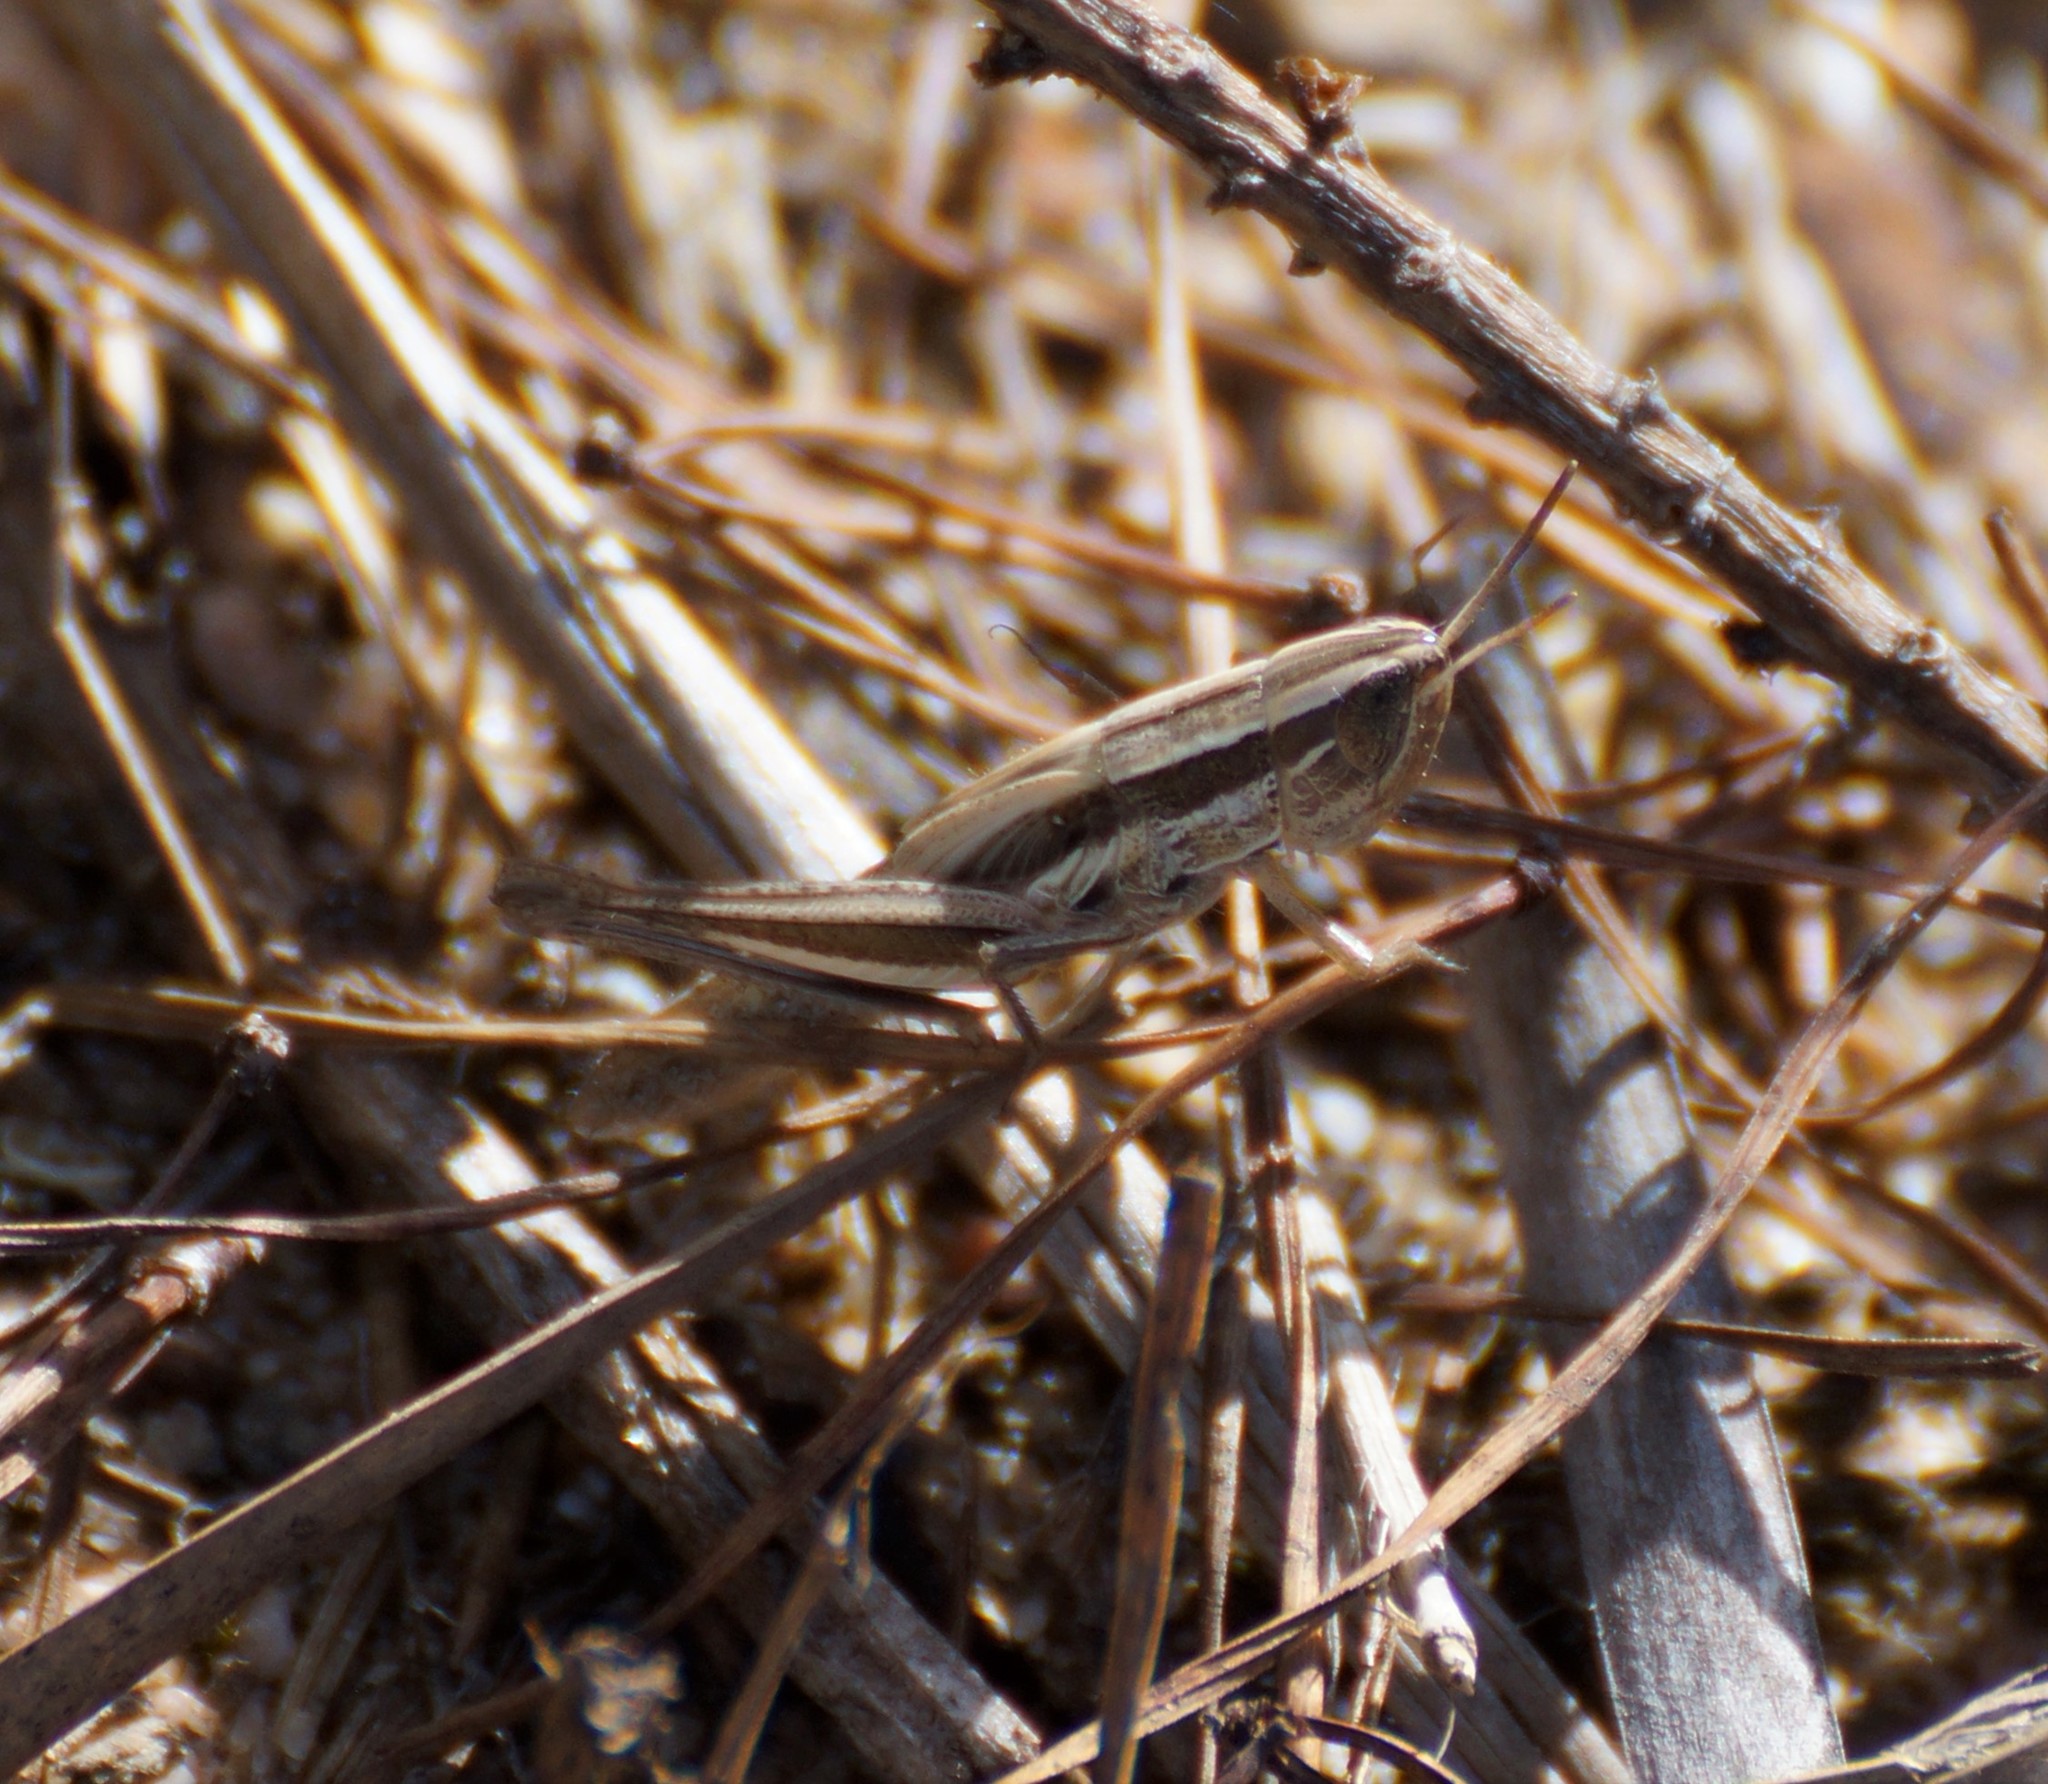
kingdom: Animalia
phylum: Arthropoda
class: Insecta
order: Orthoptera
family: Acrididae
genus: Macrotona
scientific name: Macrotona australis
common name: Common macrotona
